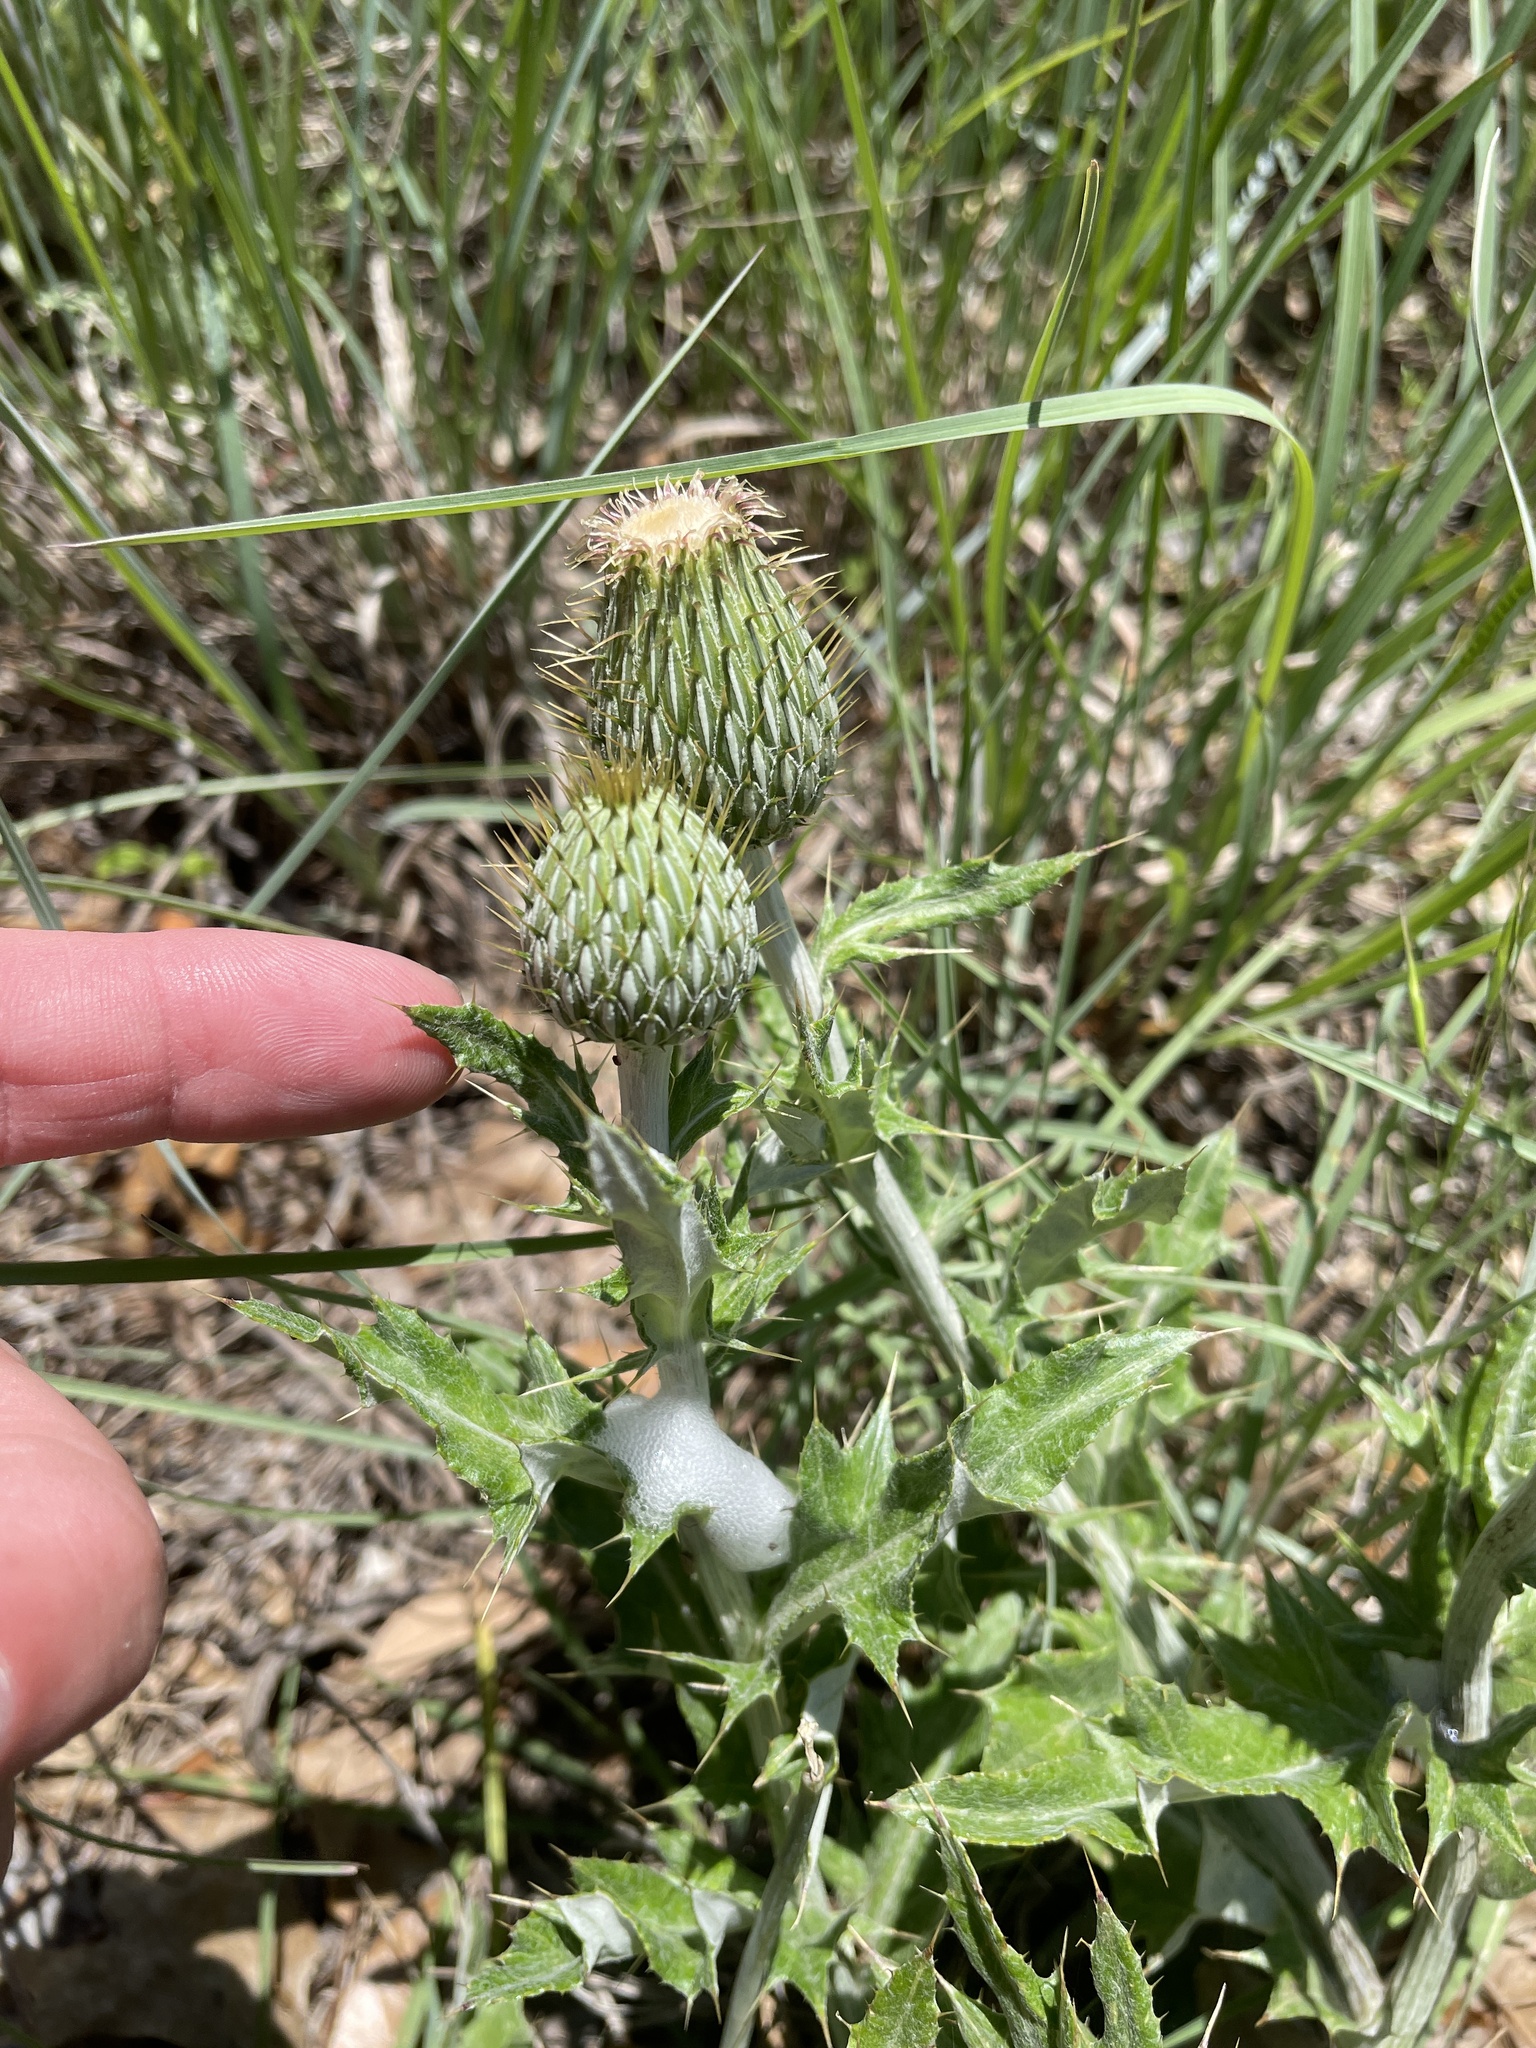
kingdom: Plantae
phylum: Tracheophyta
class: Magnoliopsida
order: Asterales
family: Asteraceae
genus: Cirsium
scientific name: Cirsium undulatum
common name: Pasture thistle
